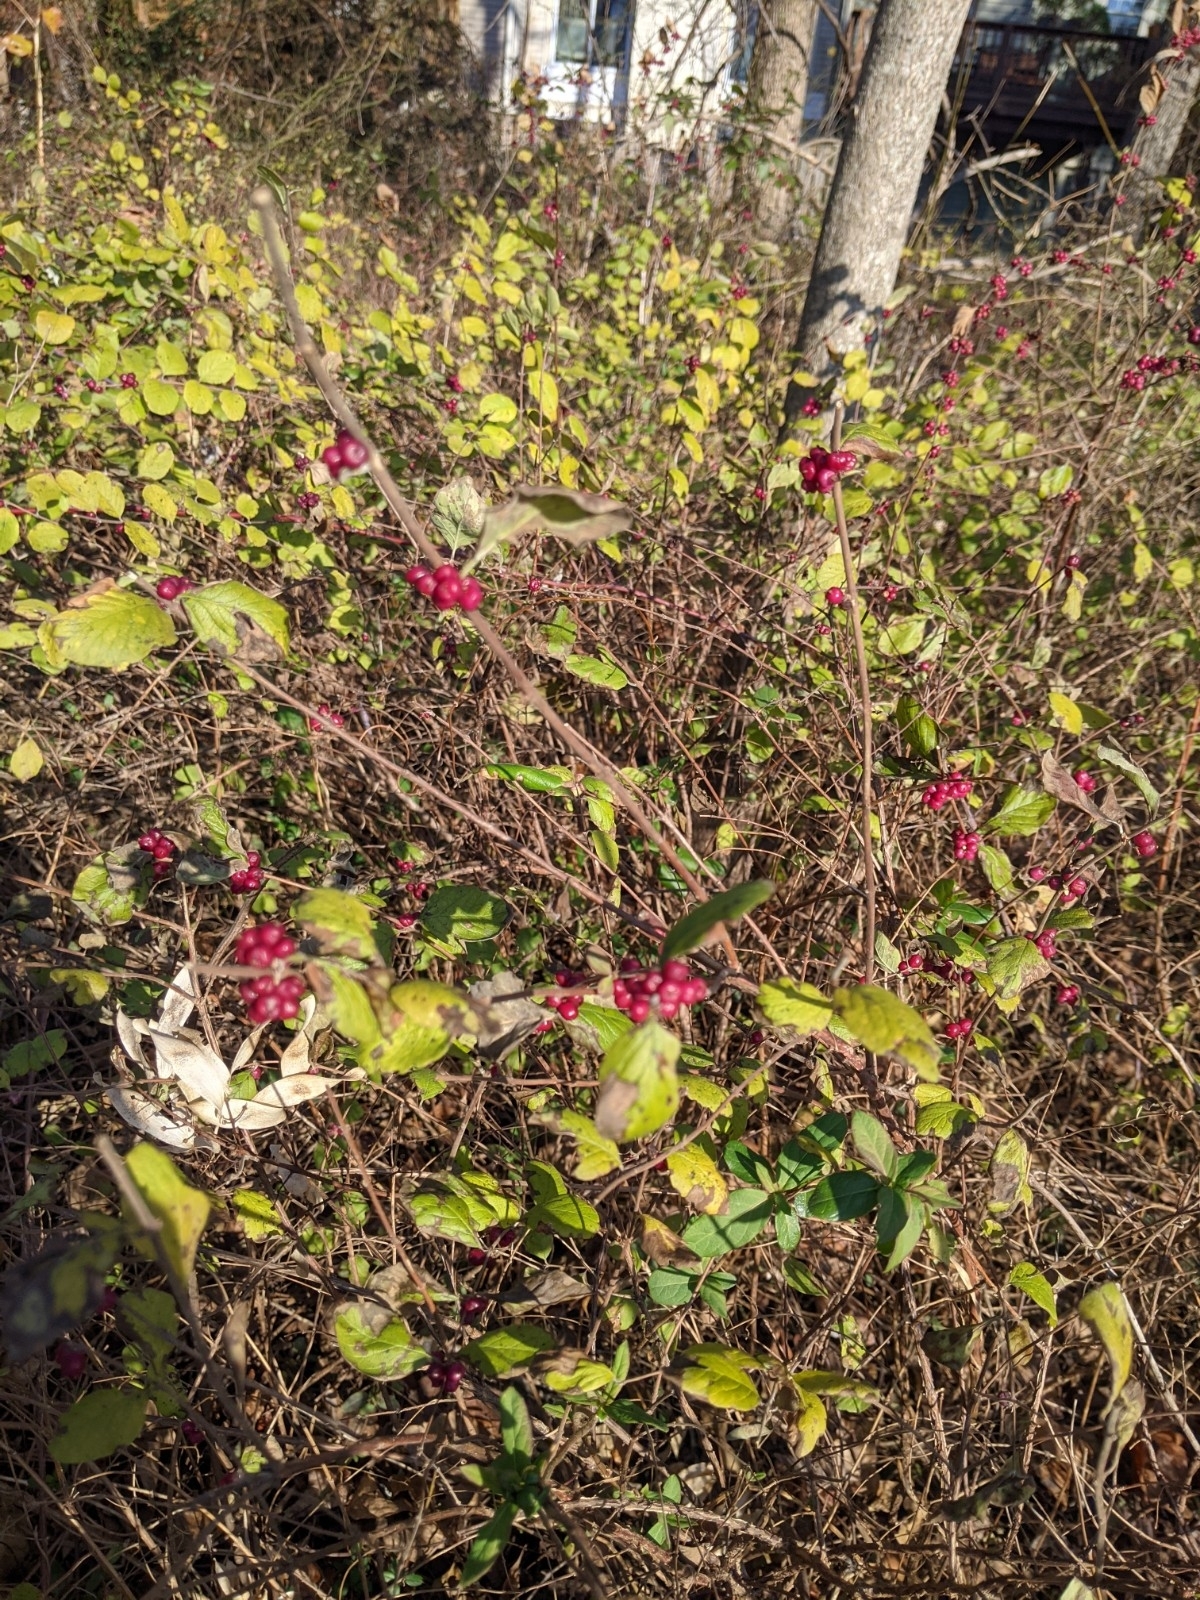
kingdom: Plantae
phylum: Tracheophyta
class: Magnoliopsida
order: Dipsacales
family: Caprifoliaceae
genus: Symphoricarpos
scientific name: Symphoricarpos orbiculatus
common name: Coralberry
